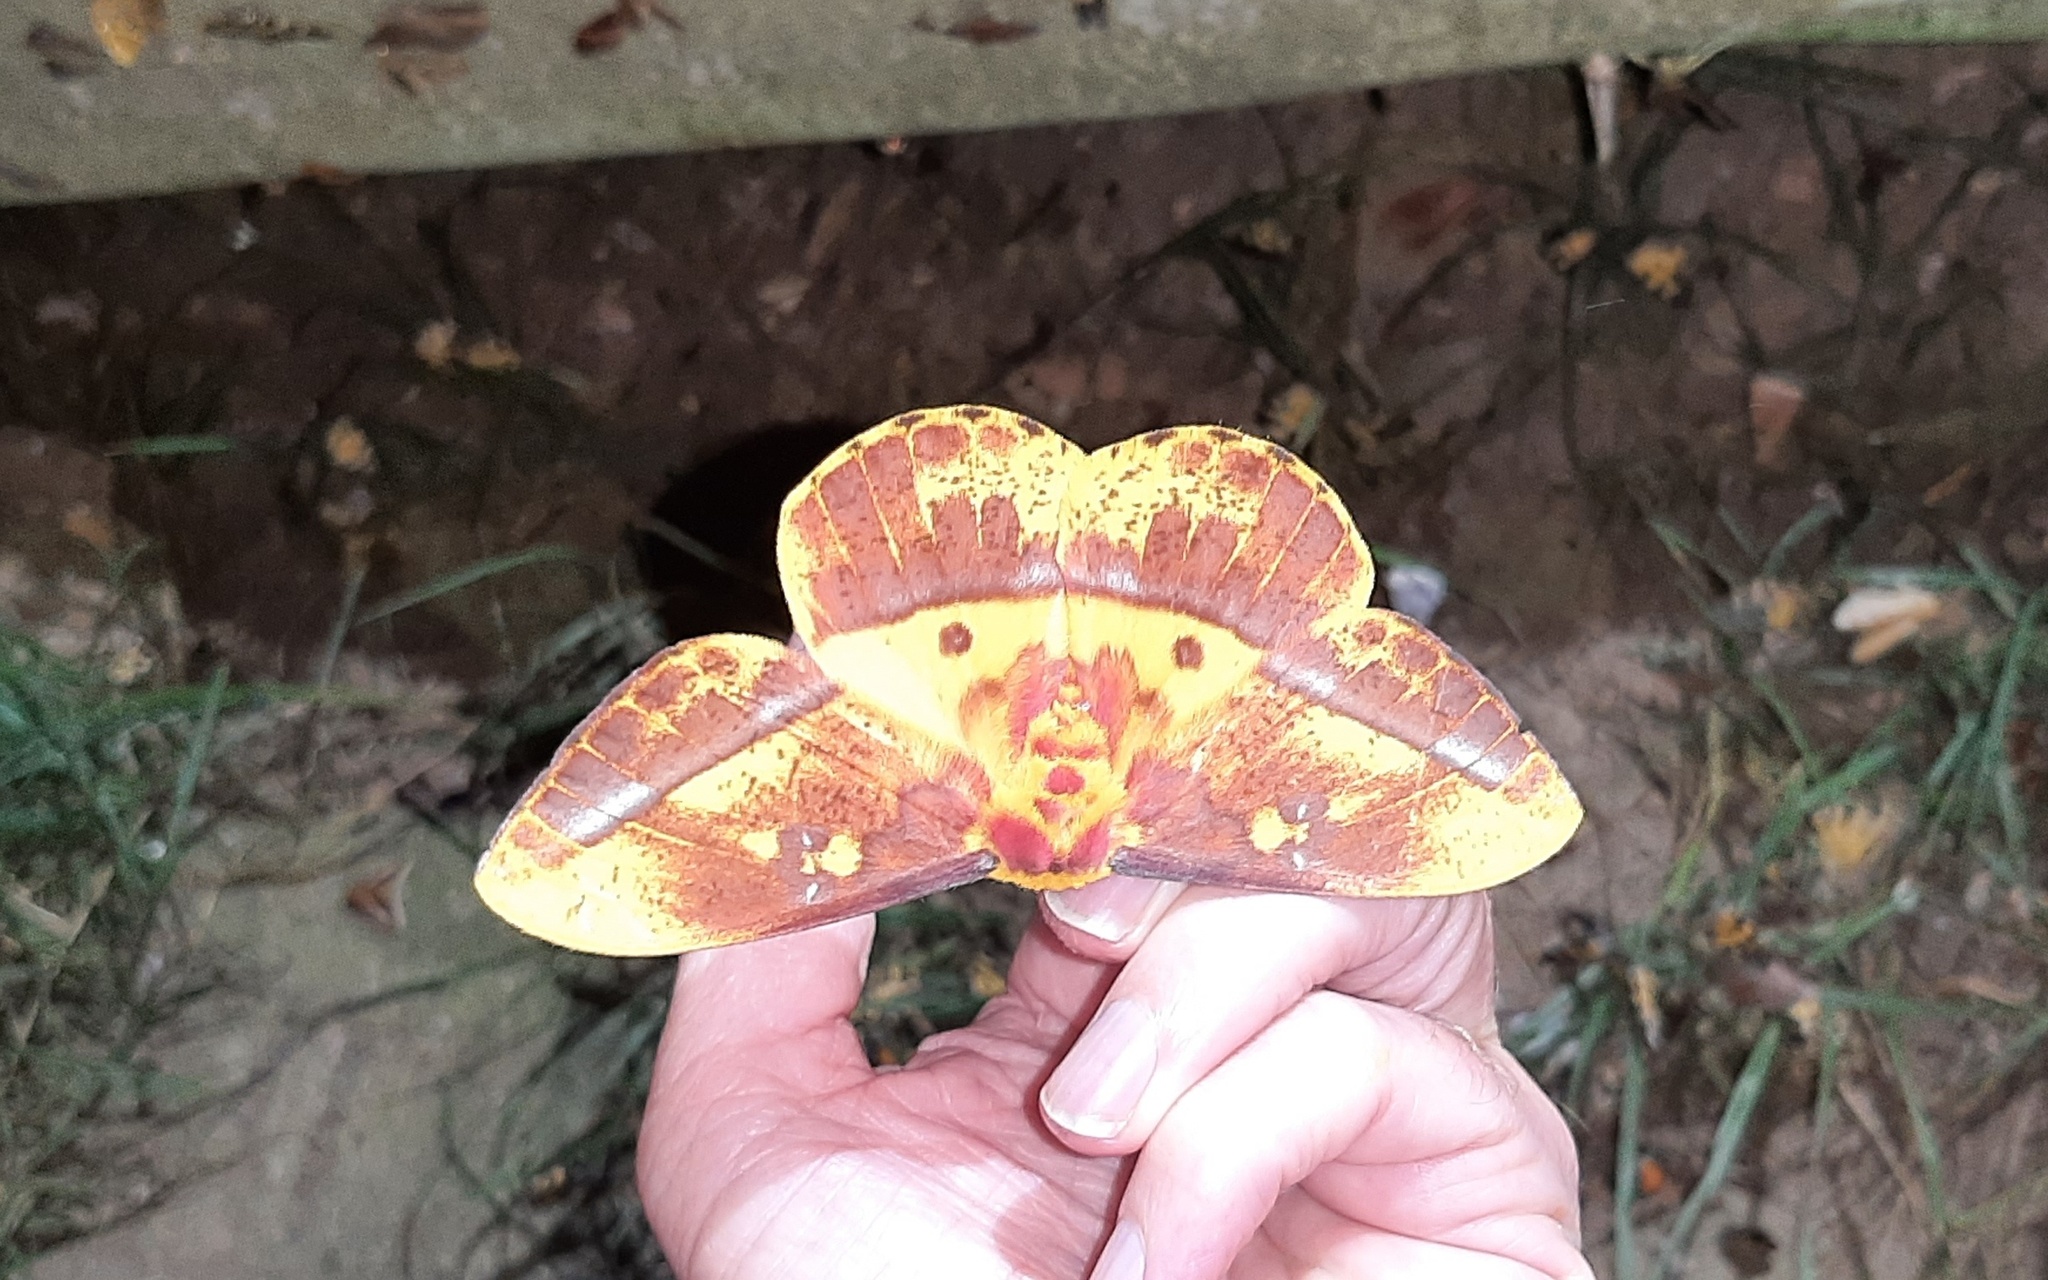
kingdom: Animalia
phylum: Arthropoda
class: Insecta
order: Lepidoptera
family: Saturniidae
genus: Bathyphlebia
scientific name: Bathyphlebia eminens
